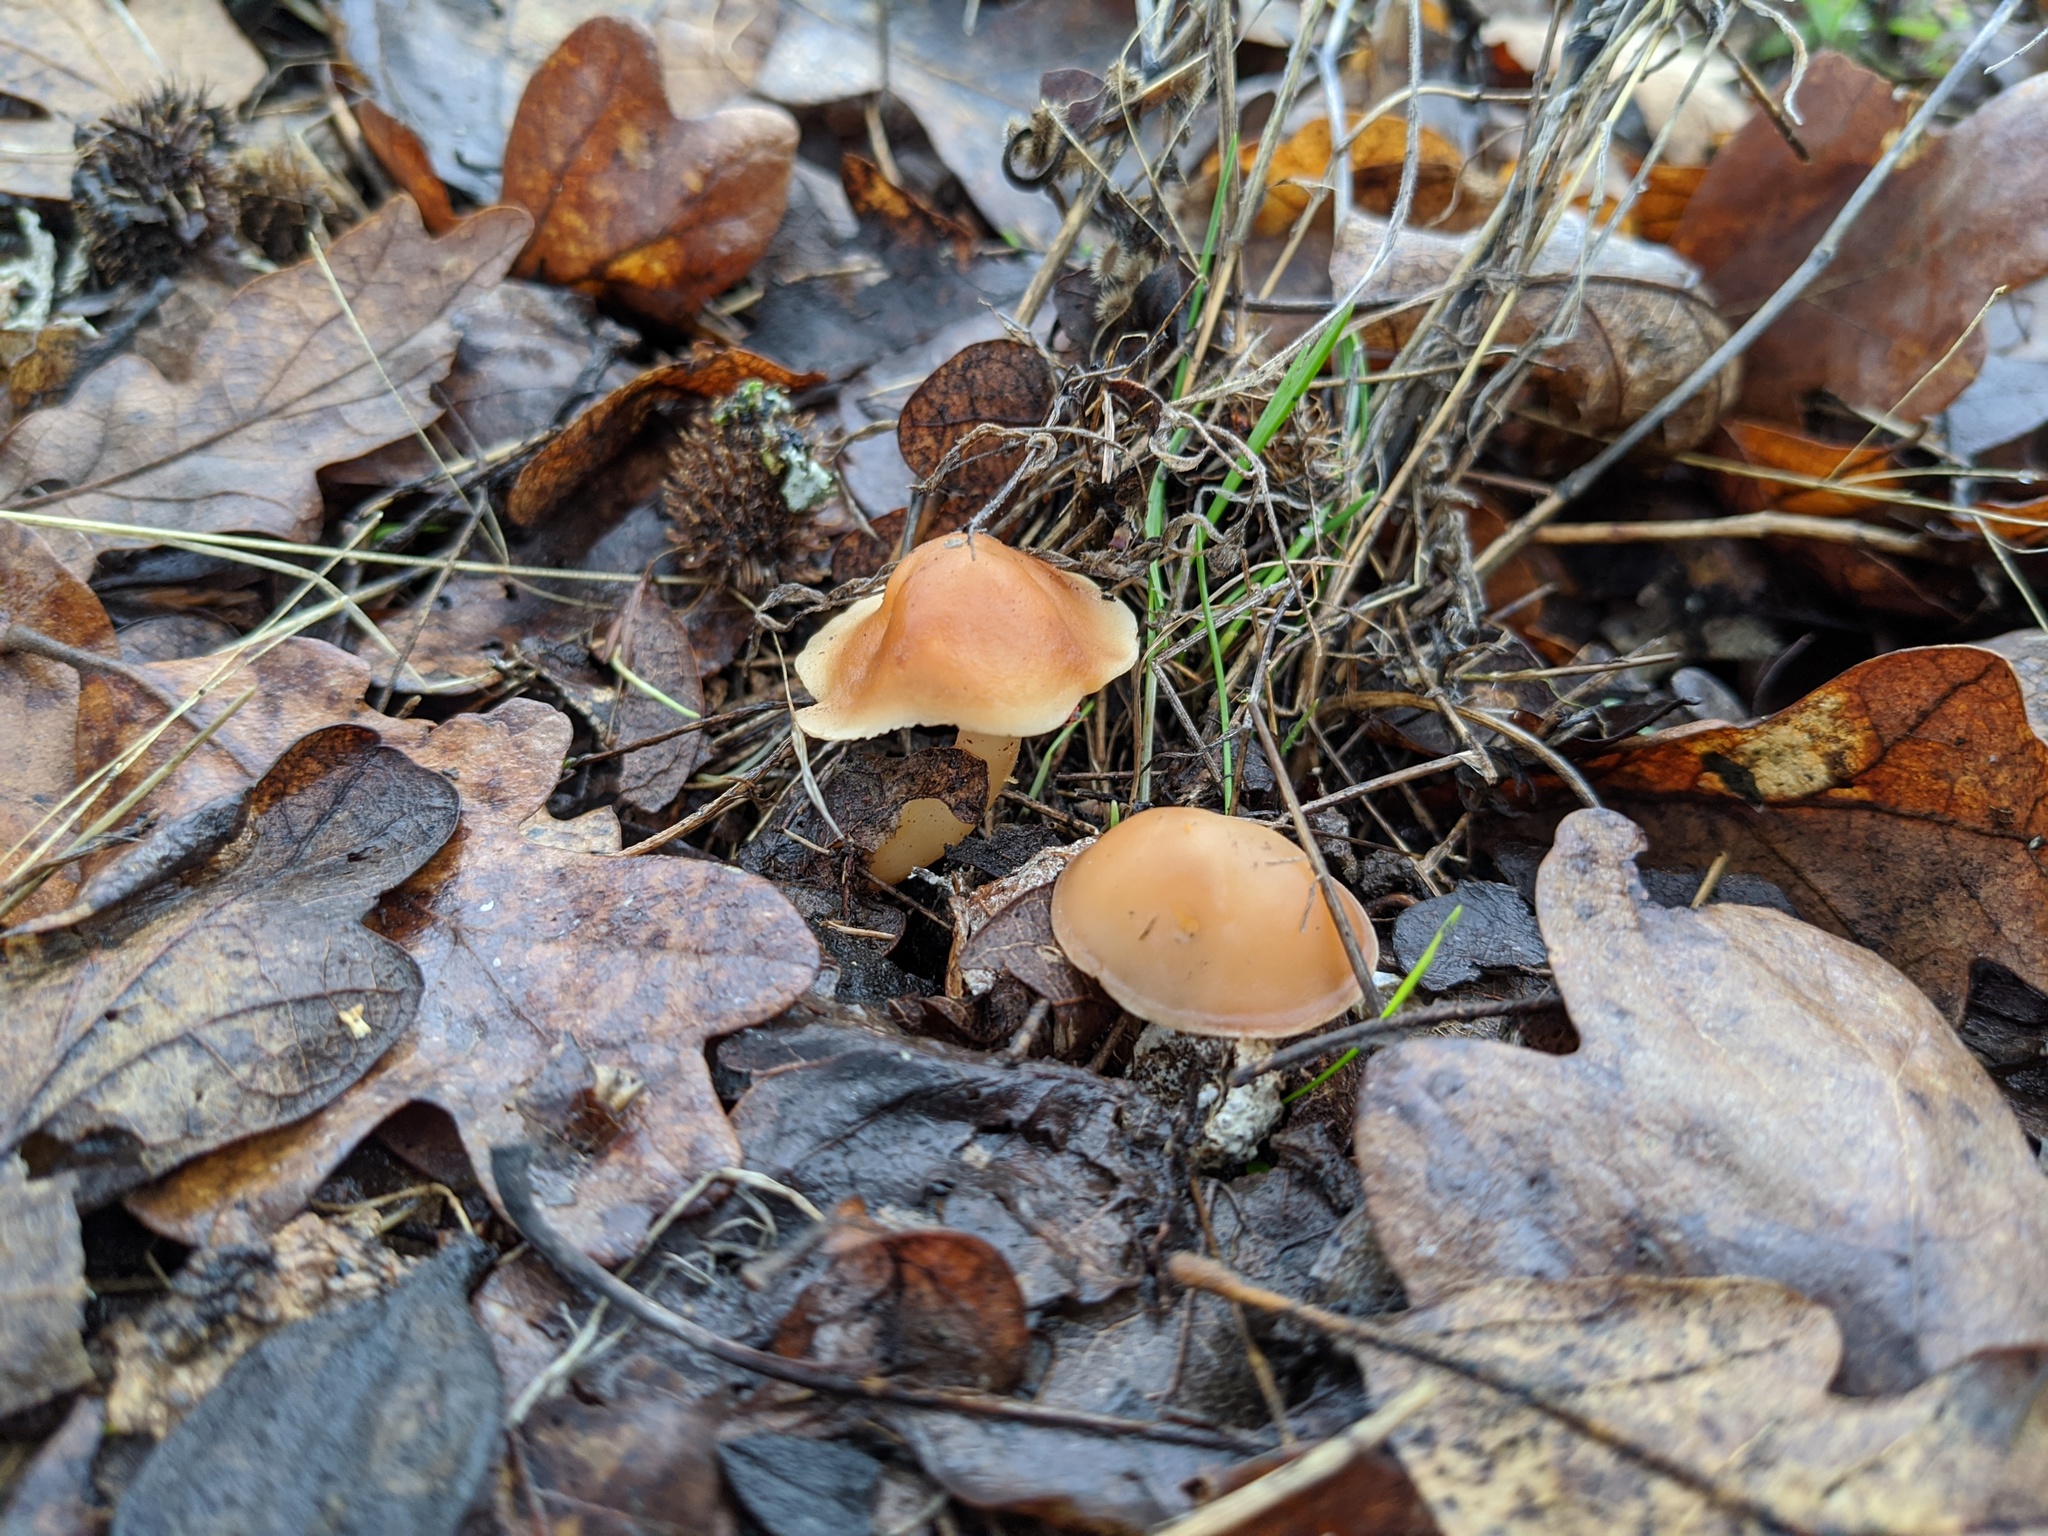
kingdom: Fungi
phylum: Basidiomycota
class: Agaricomycetes
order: Agaricales
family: Omphalotaceae
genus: Gymnopus
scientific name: Gymnopus dryophilus
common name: Penny top
